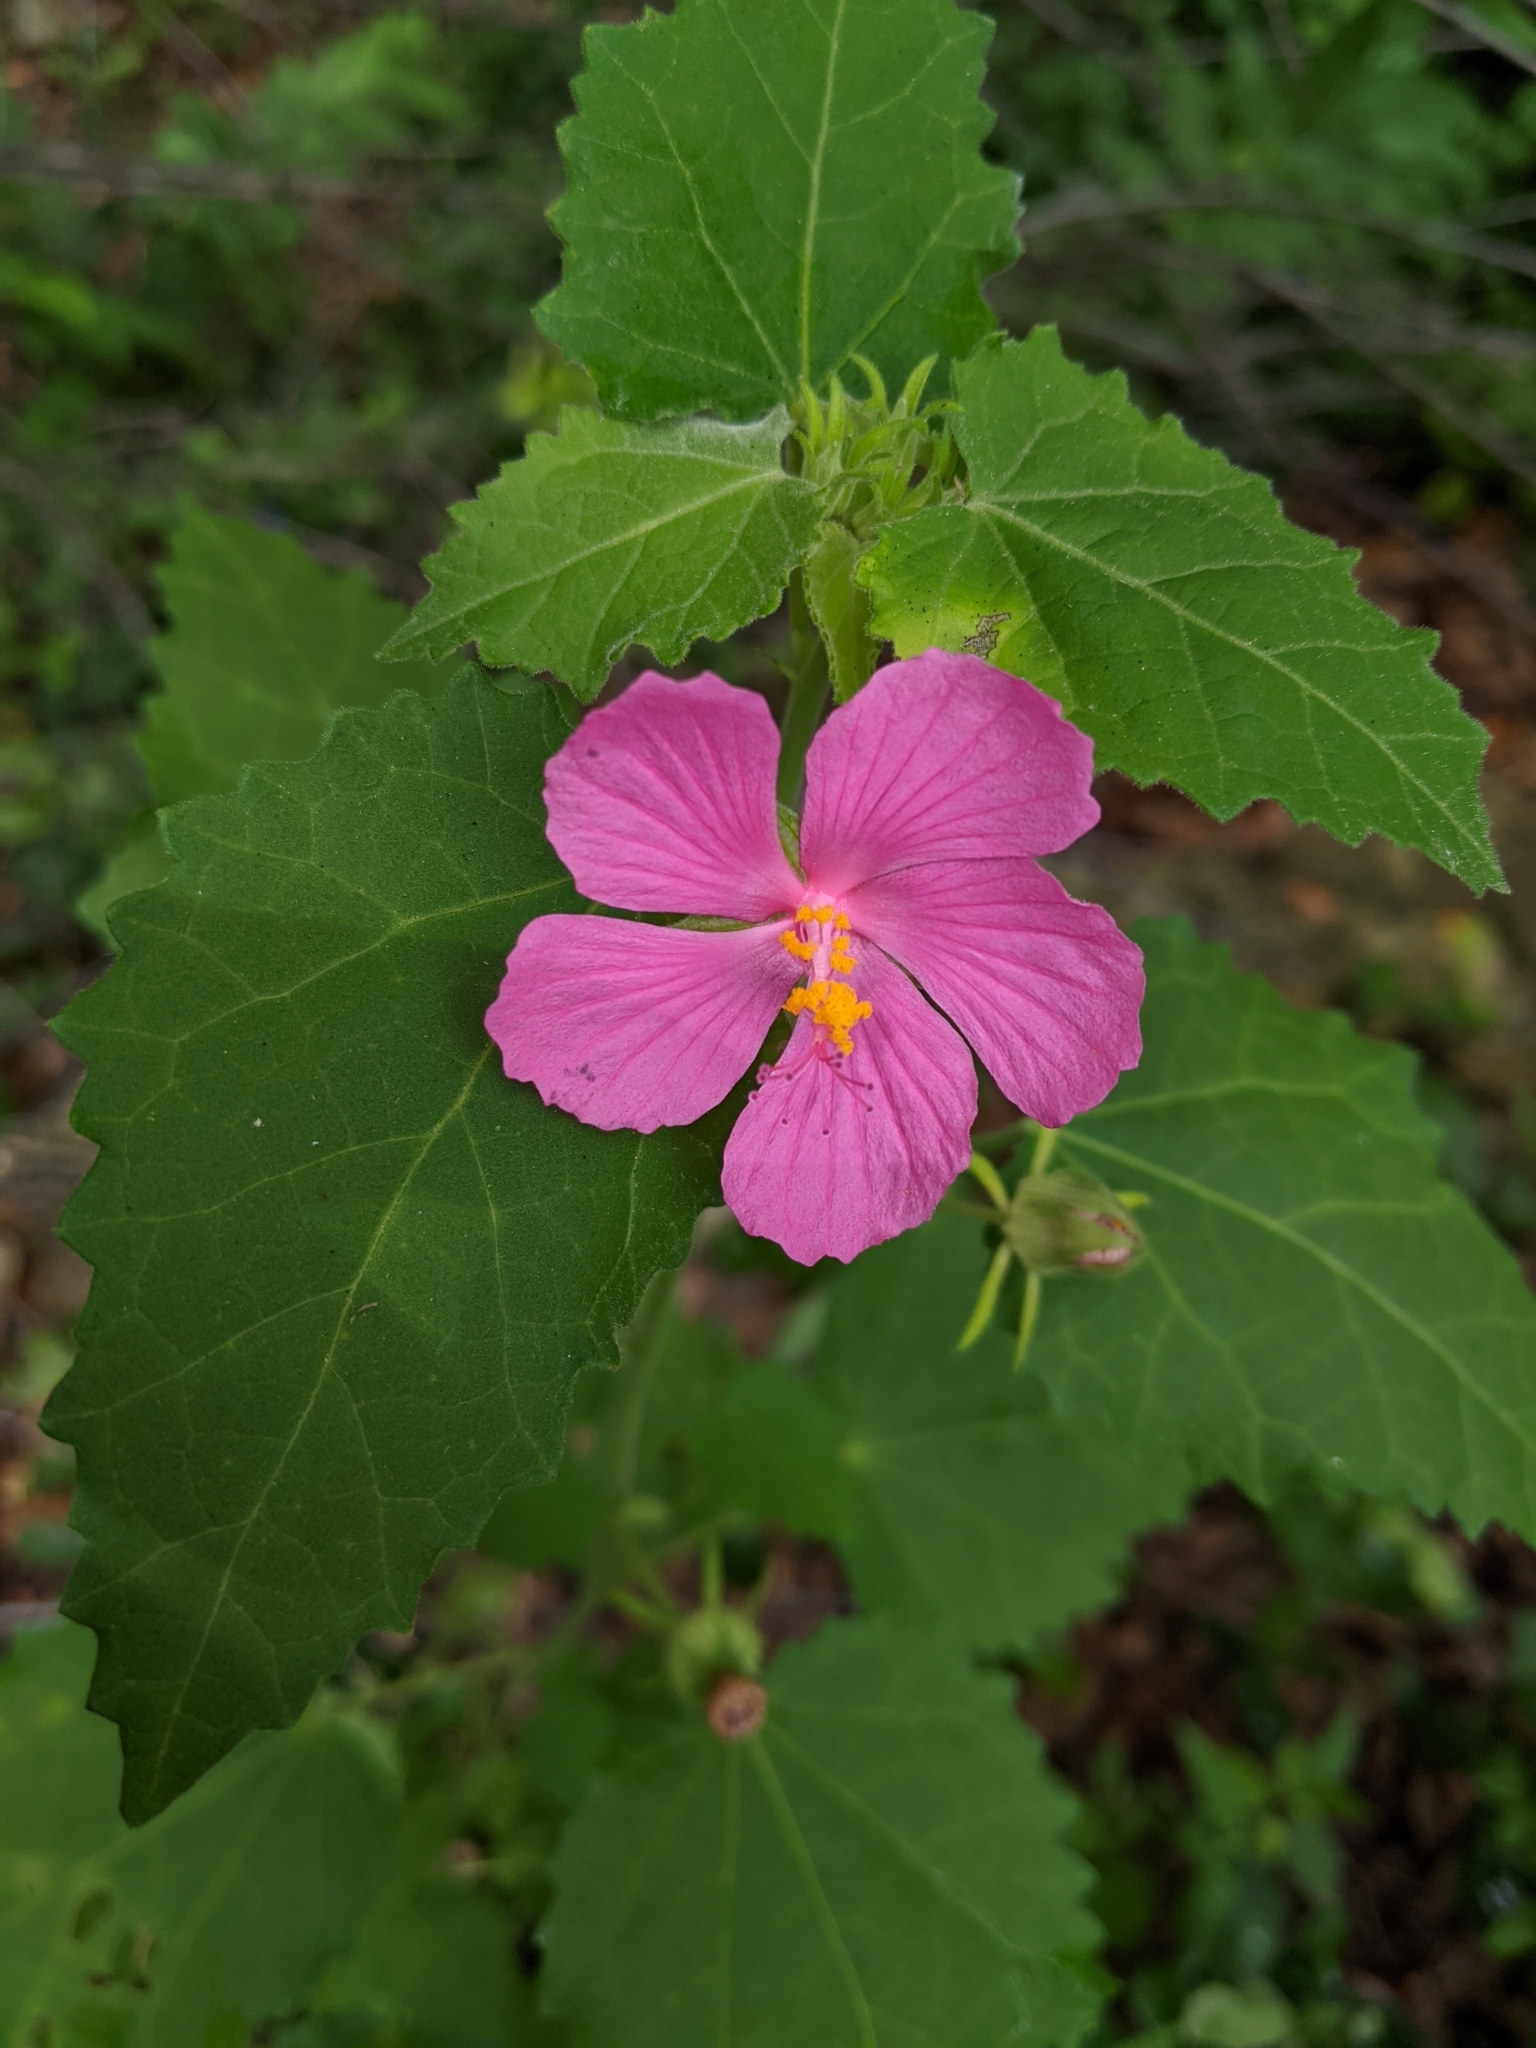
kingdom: Plantae
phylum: Tracheophyta
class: Magnoliopsida
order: Malvales
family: Malvaceae
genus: Pavonia
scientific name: Pavonia lasiopetala
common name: Texas swamp-mallow
